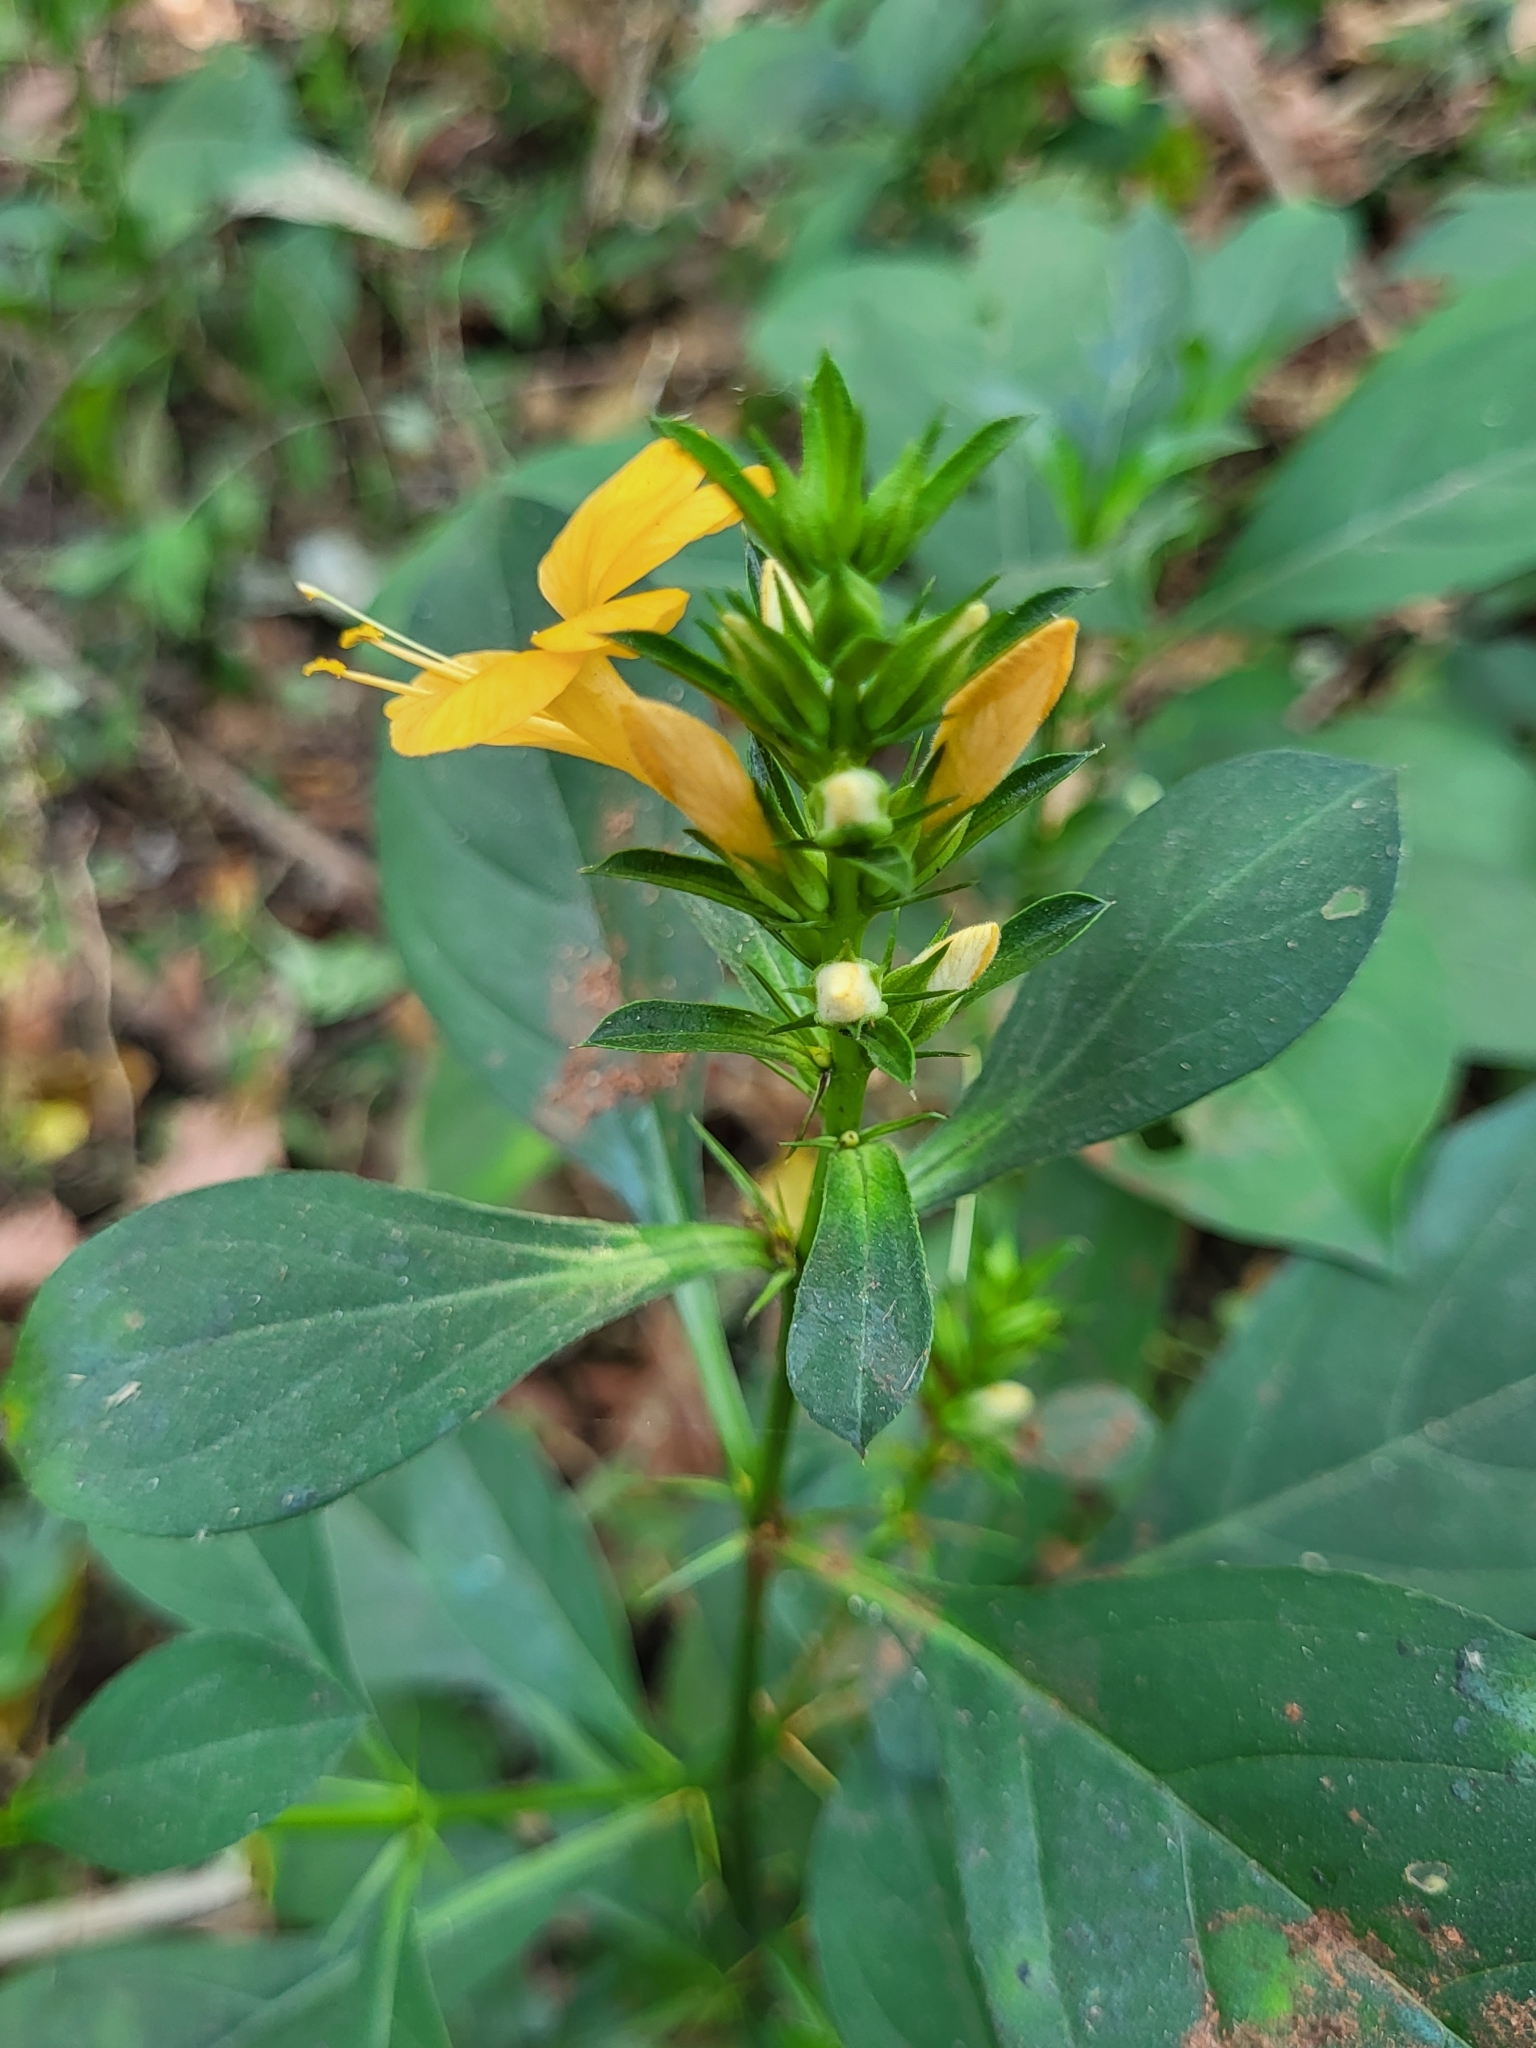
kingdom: Plantae
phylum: Tracheophyta
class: Magnoliopsida
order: Lamiales
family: Acanthaceae
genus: Barleria
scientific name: Barleria prionitis
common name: Barleria
